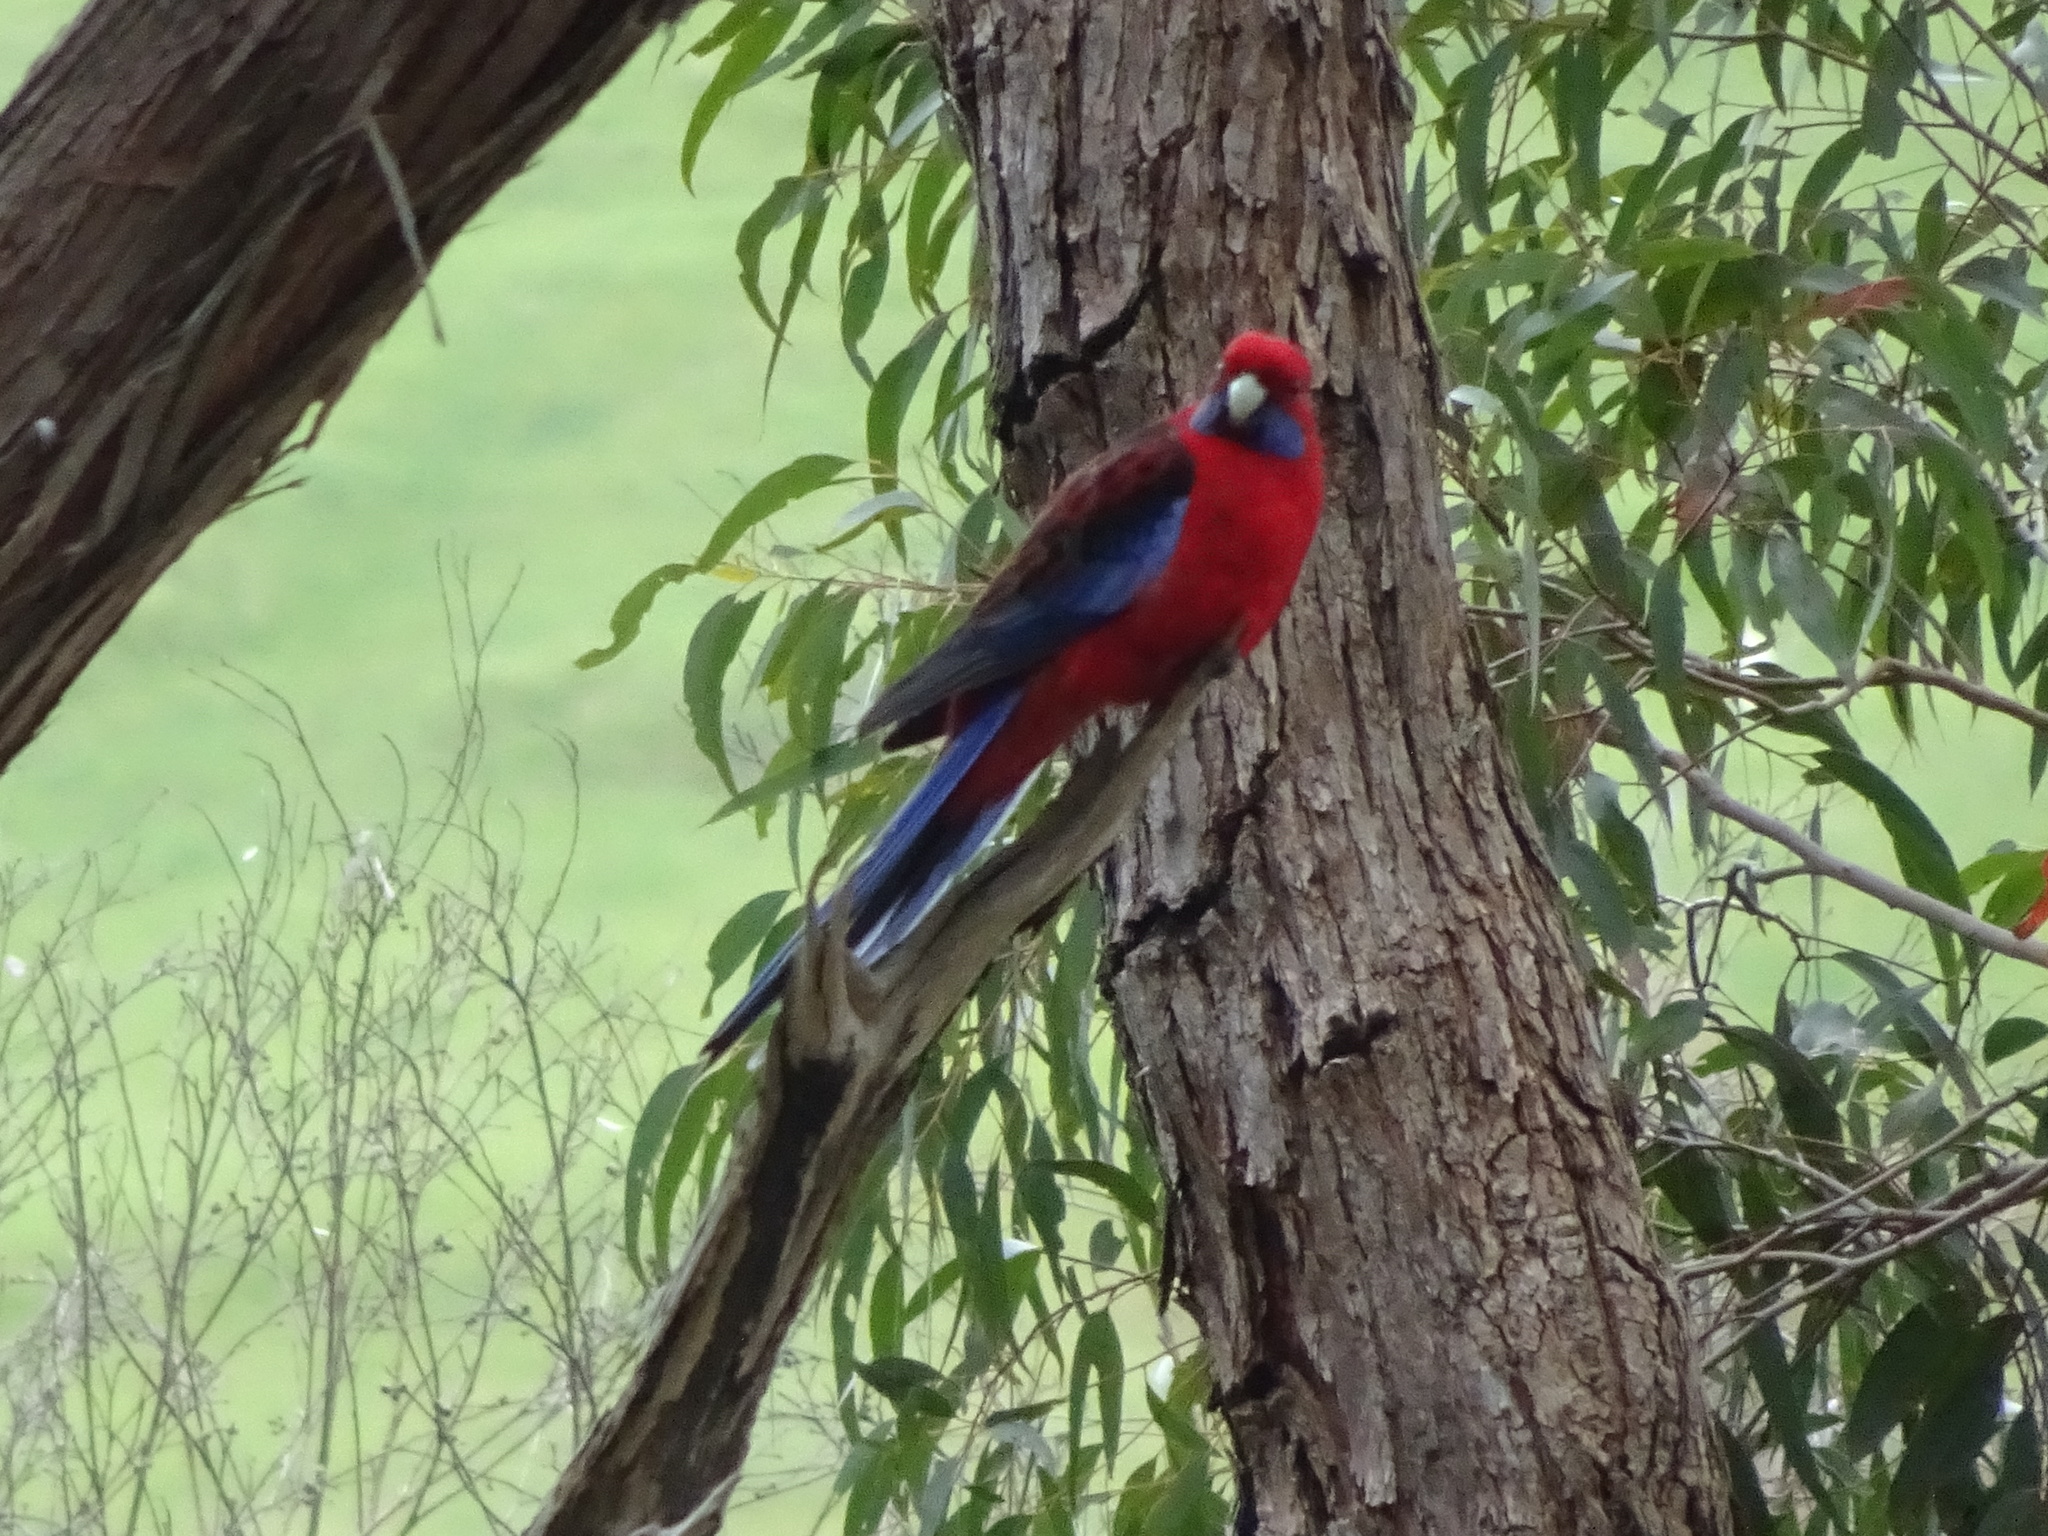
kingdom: Animalia
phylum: Chordata
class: Aves
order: Psittaciformes
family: Psittacidae
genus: Platycercus
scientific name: Platycercus elegans
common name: Crimson rosella
